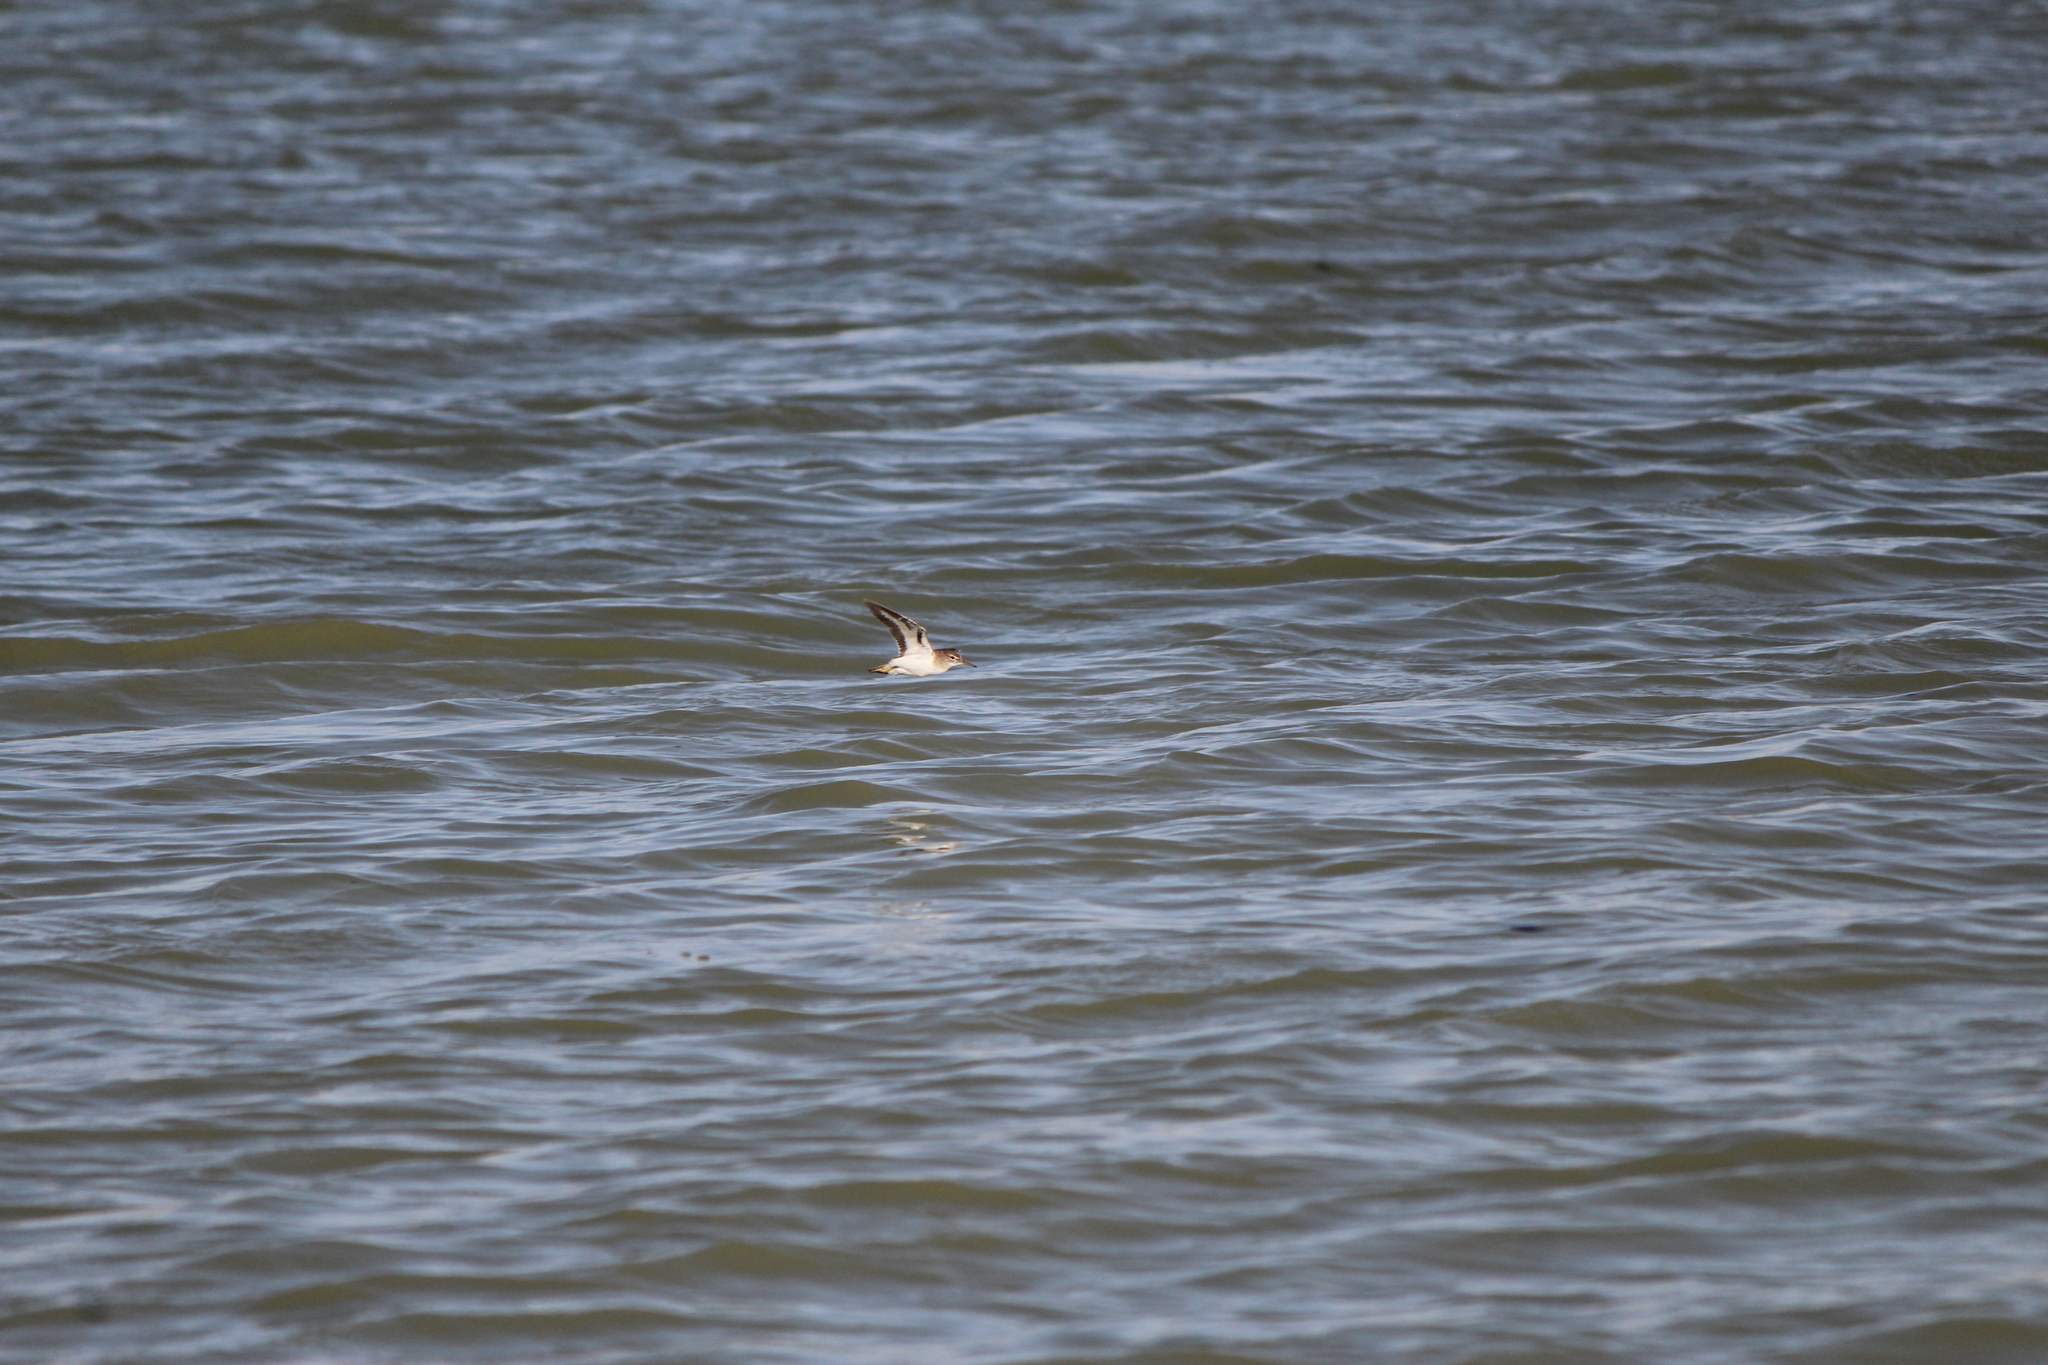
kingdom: Animalia
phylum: Chordata
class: Aves
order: Charadriiformes
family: Scolopacidae
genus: Actitis
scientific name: Actitis macularius
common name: Spotted sandpiper
